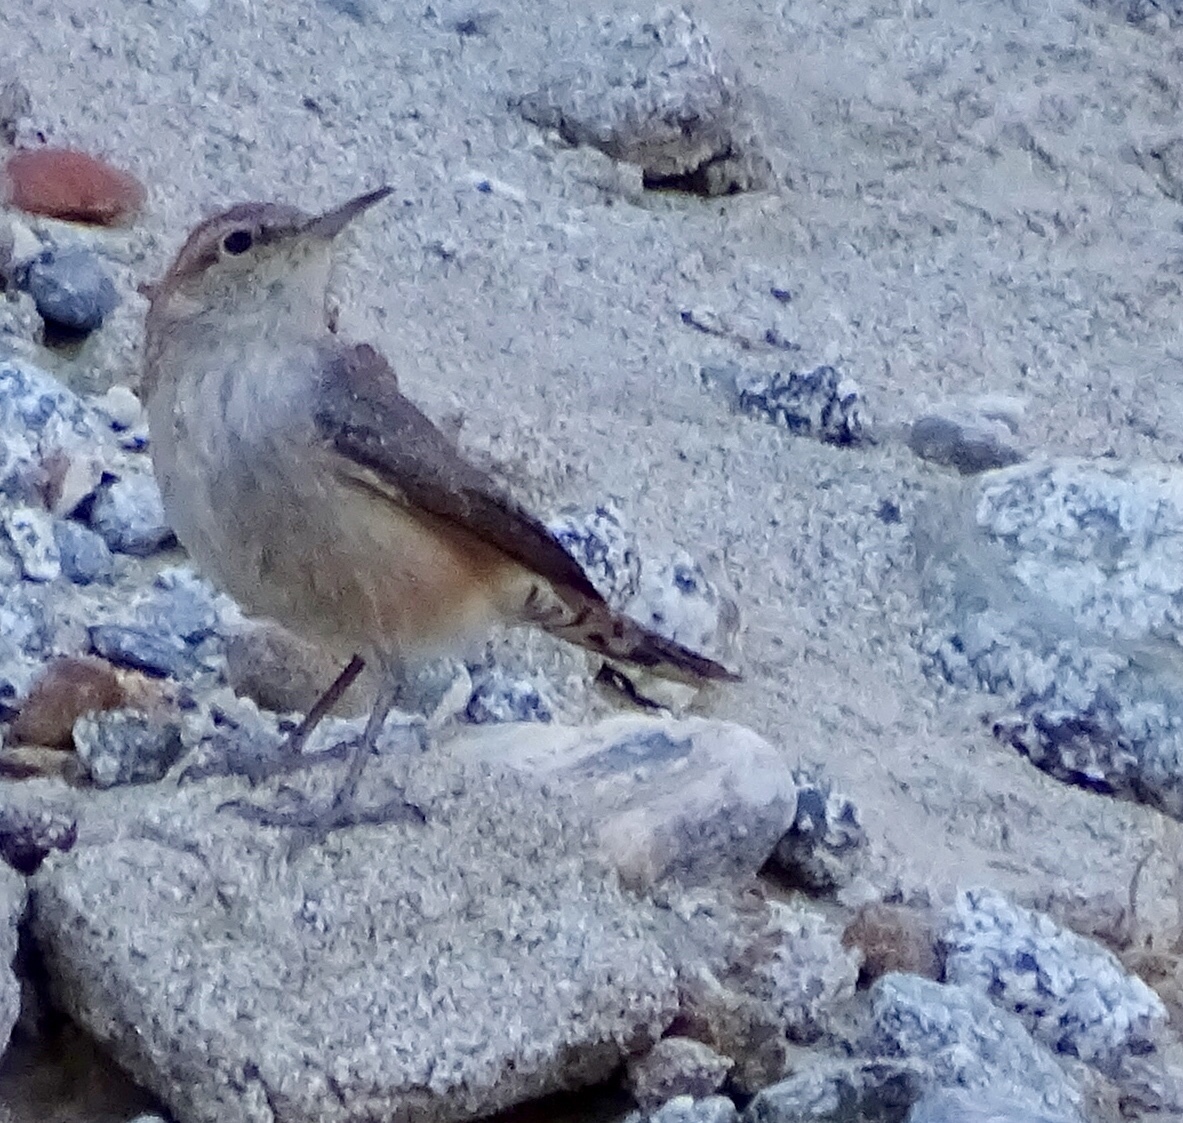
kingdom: Animalia
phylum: Chordata
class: Aves
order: Passeriformes
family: Troglodytidae
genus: Salpinctes
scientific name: Salpinctes obsoletus
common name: Rock wren
